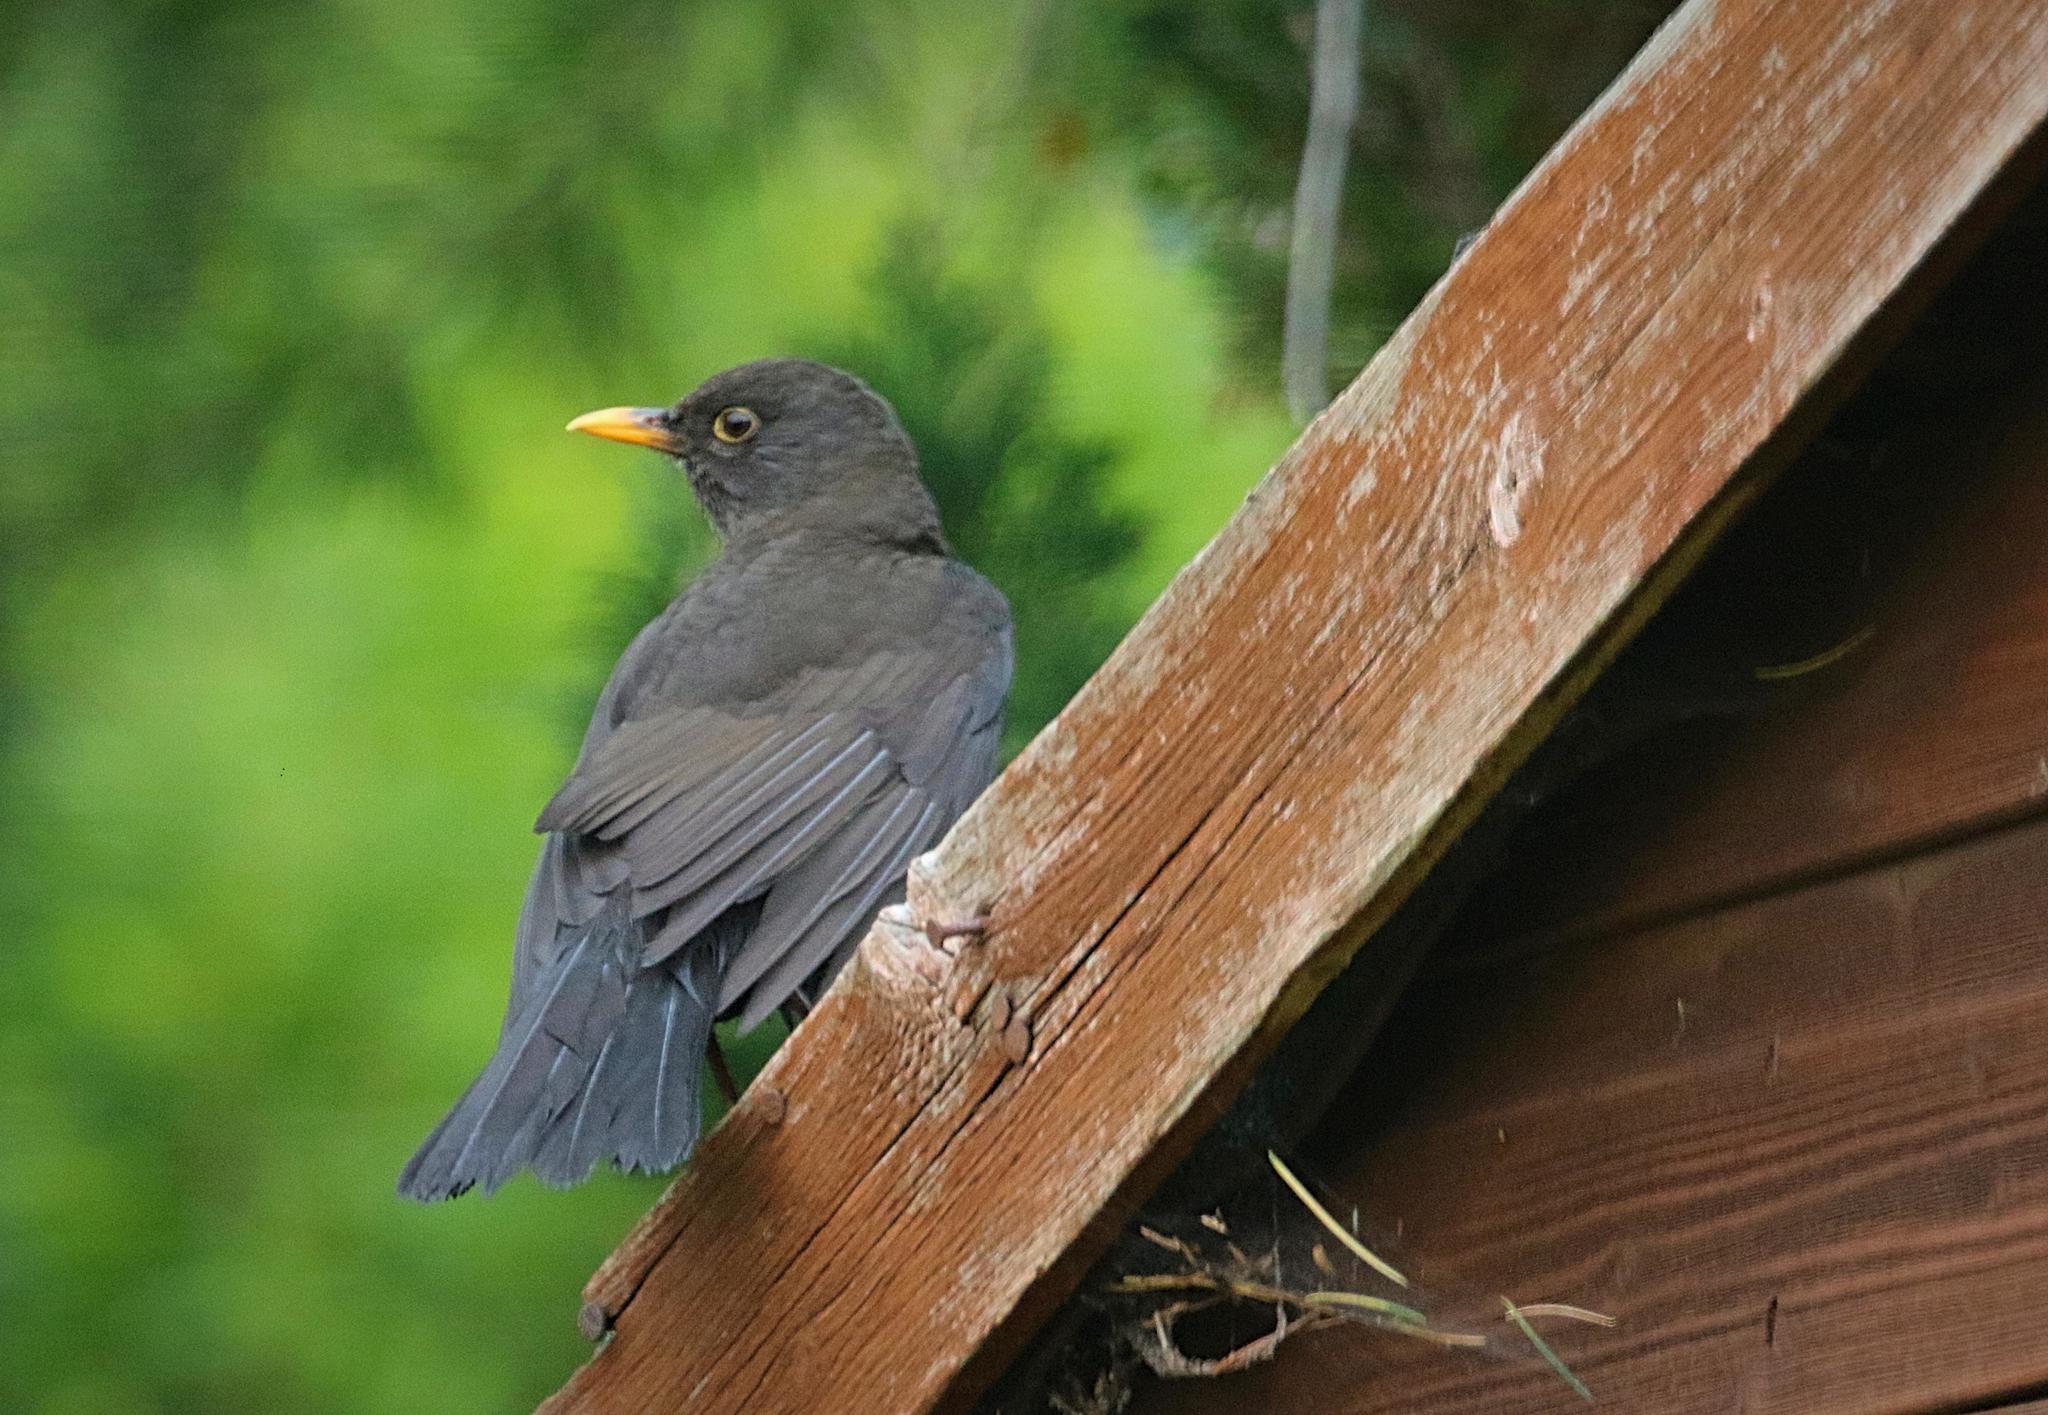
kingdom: Animalia
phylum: Chordata
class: Aves
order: Passeriformes
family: Turdidae
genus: Turdus
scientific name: Turdus merula
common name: Common blackbird
